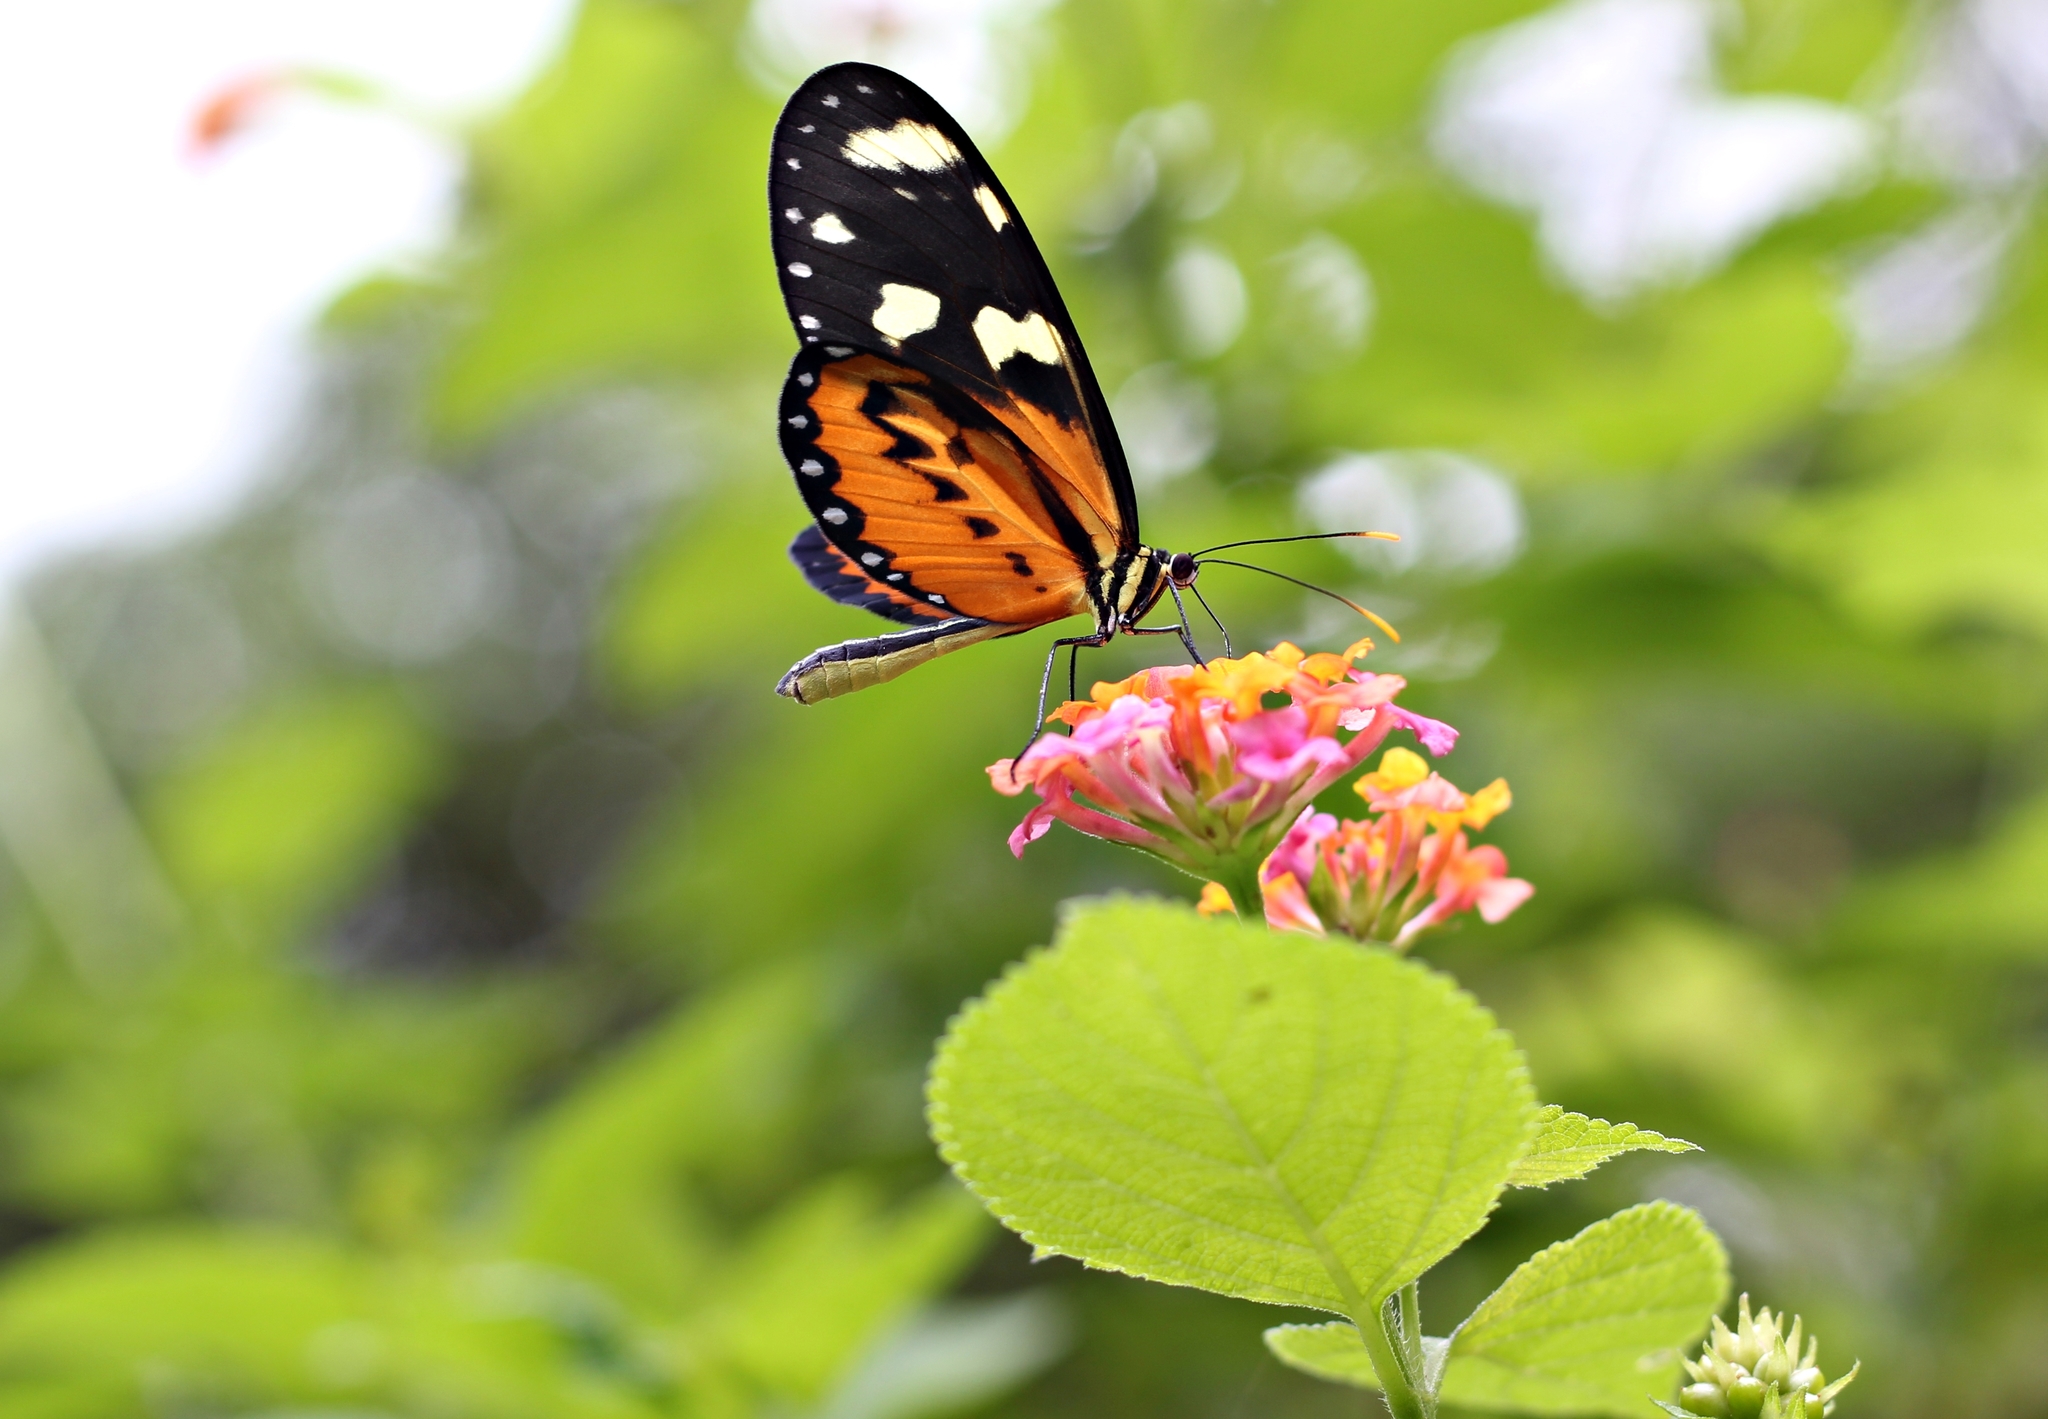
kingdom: Animalia
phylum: Arthropoda
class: Insecta
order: Lepidoptera
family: Nymphalidae
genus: Mechanitis
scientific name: Mechanitis lysimnia
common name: Lysimnia tigerwing
